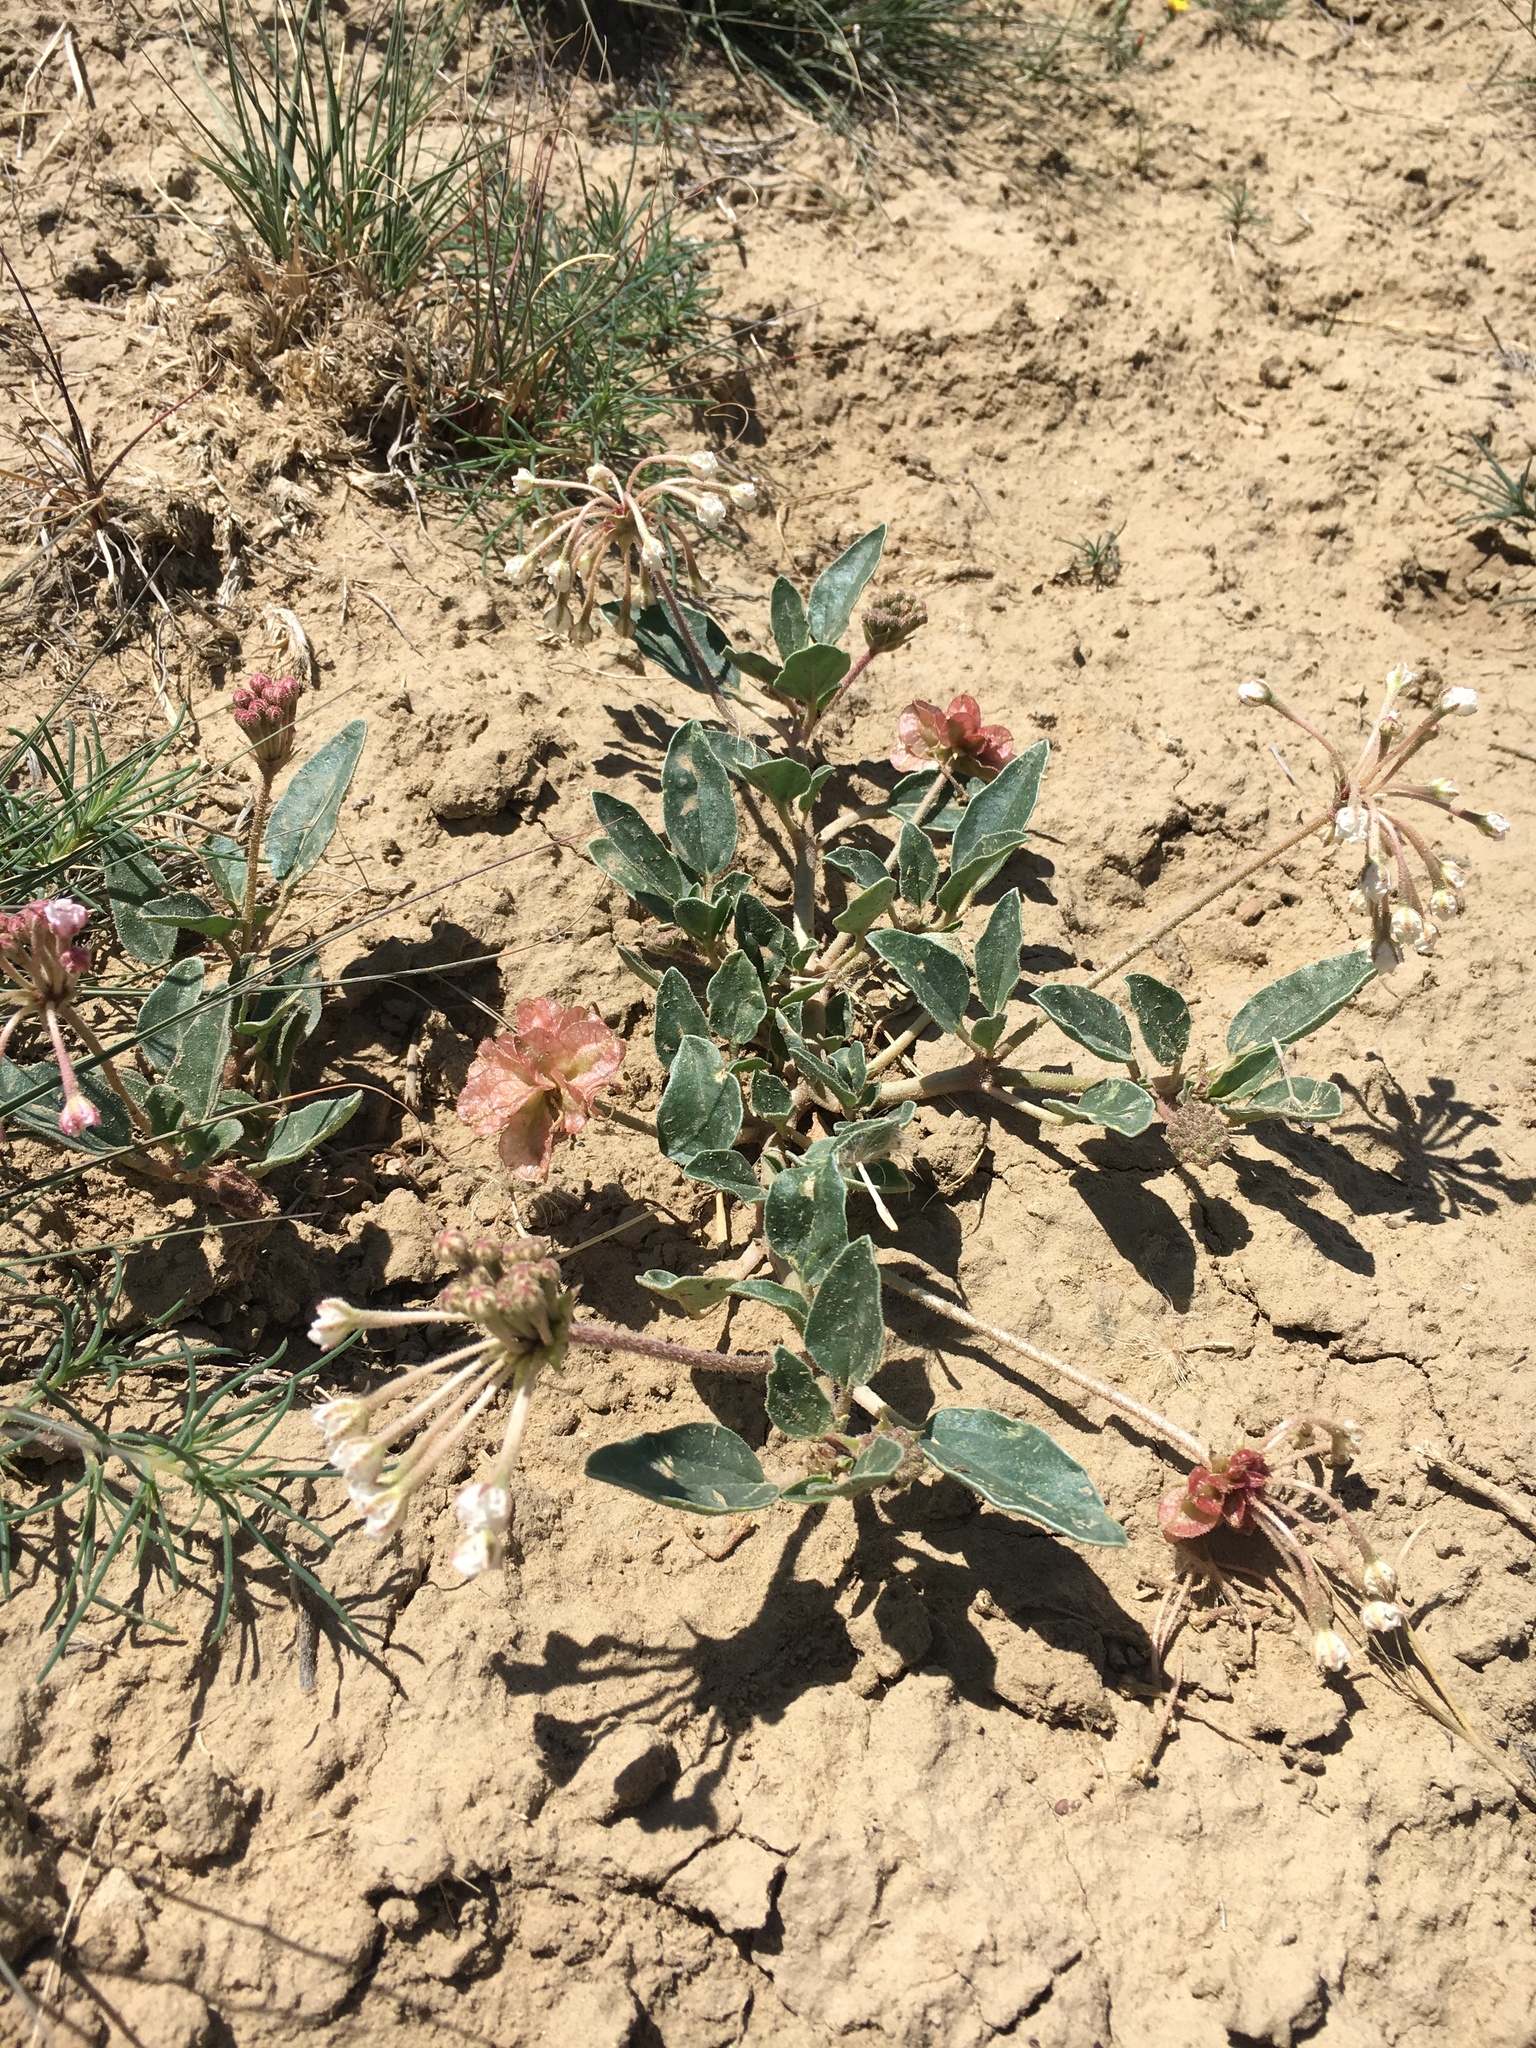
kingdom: Plantae
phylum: Tracheophyta
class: Magnoliopsida
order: Caryophyllales
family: Nyctaginaceae
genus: Tripterocalyx
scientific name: Tripterocalyx carneus
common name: Winged sandpuffs
